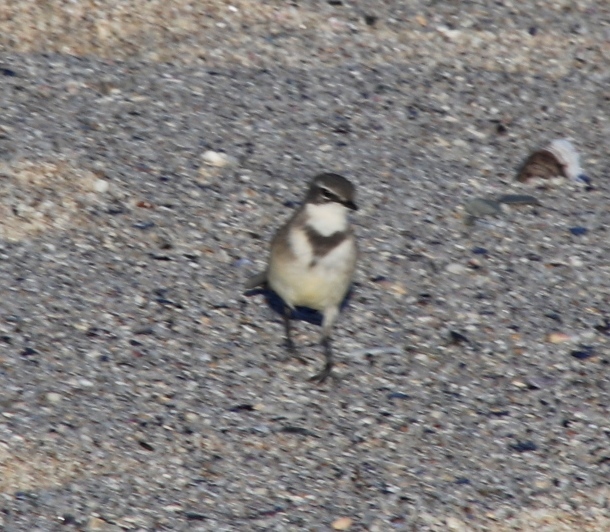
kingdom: Animalia
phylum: Chordata
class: Aves
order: Passeriformes
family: Motacillidae
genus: Motacilla
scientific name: Motacilla capensis
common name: Cape wagtail
